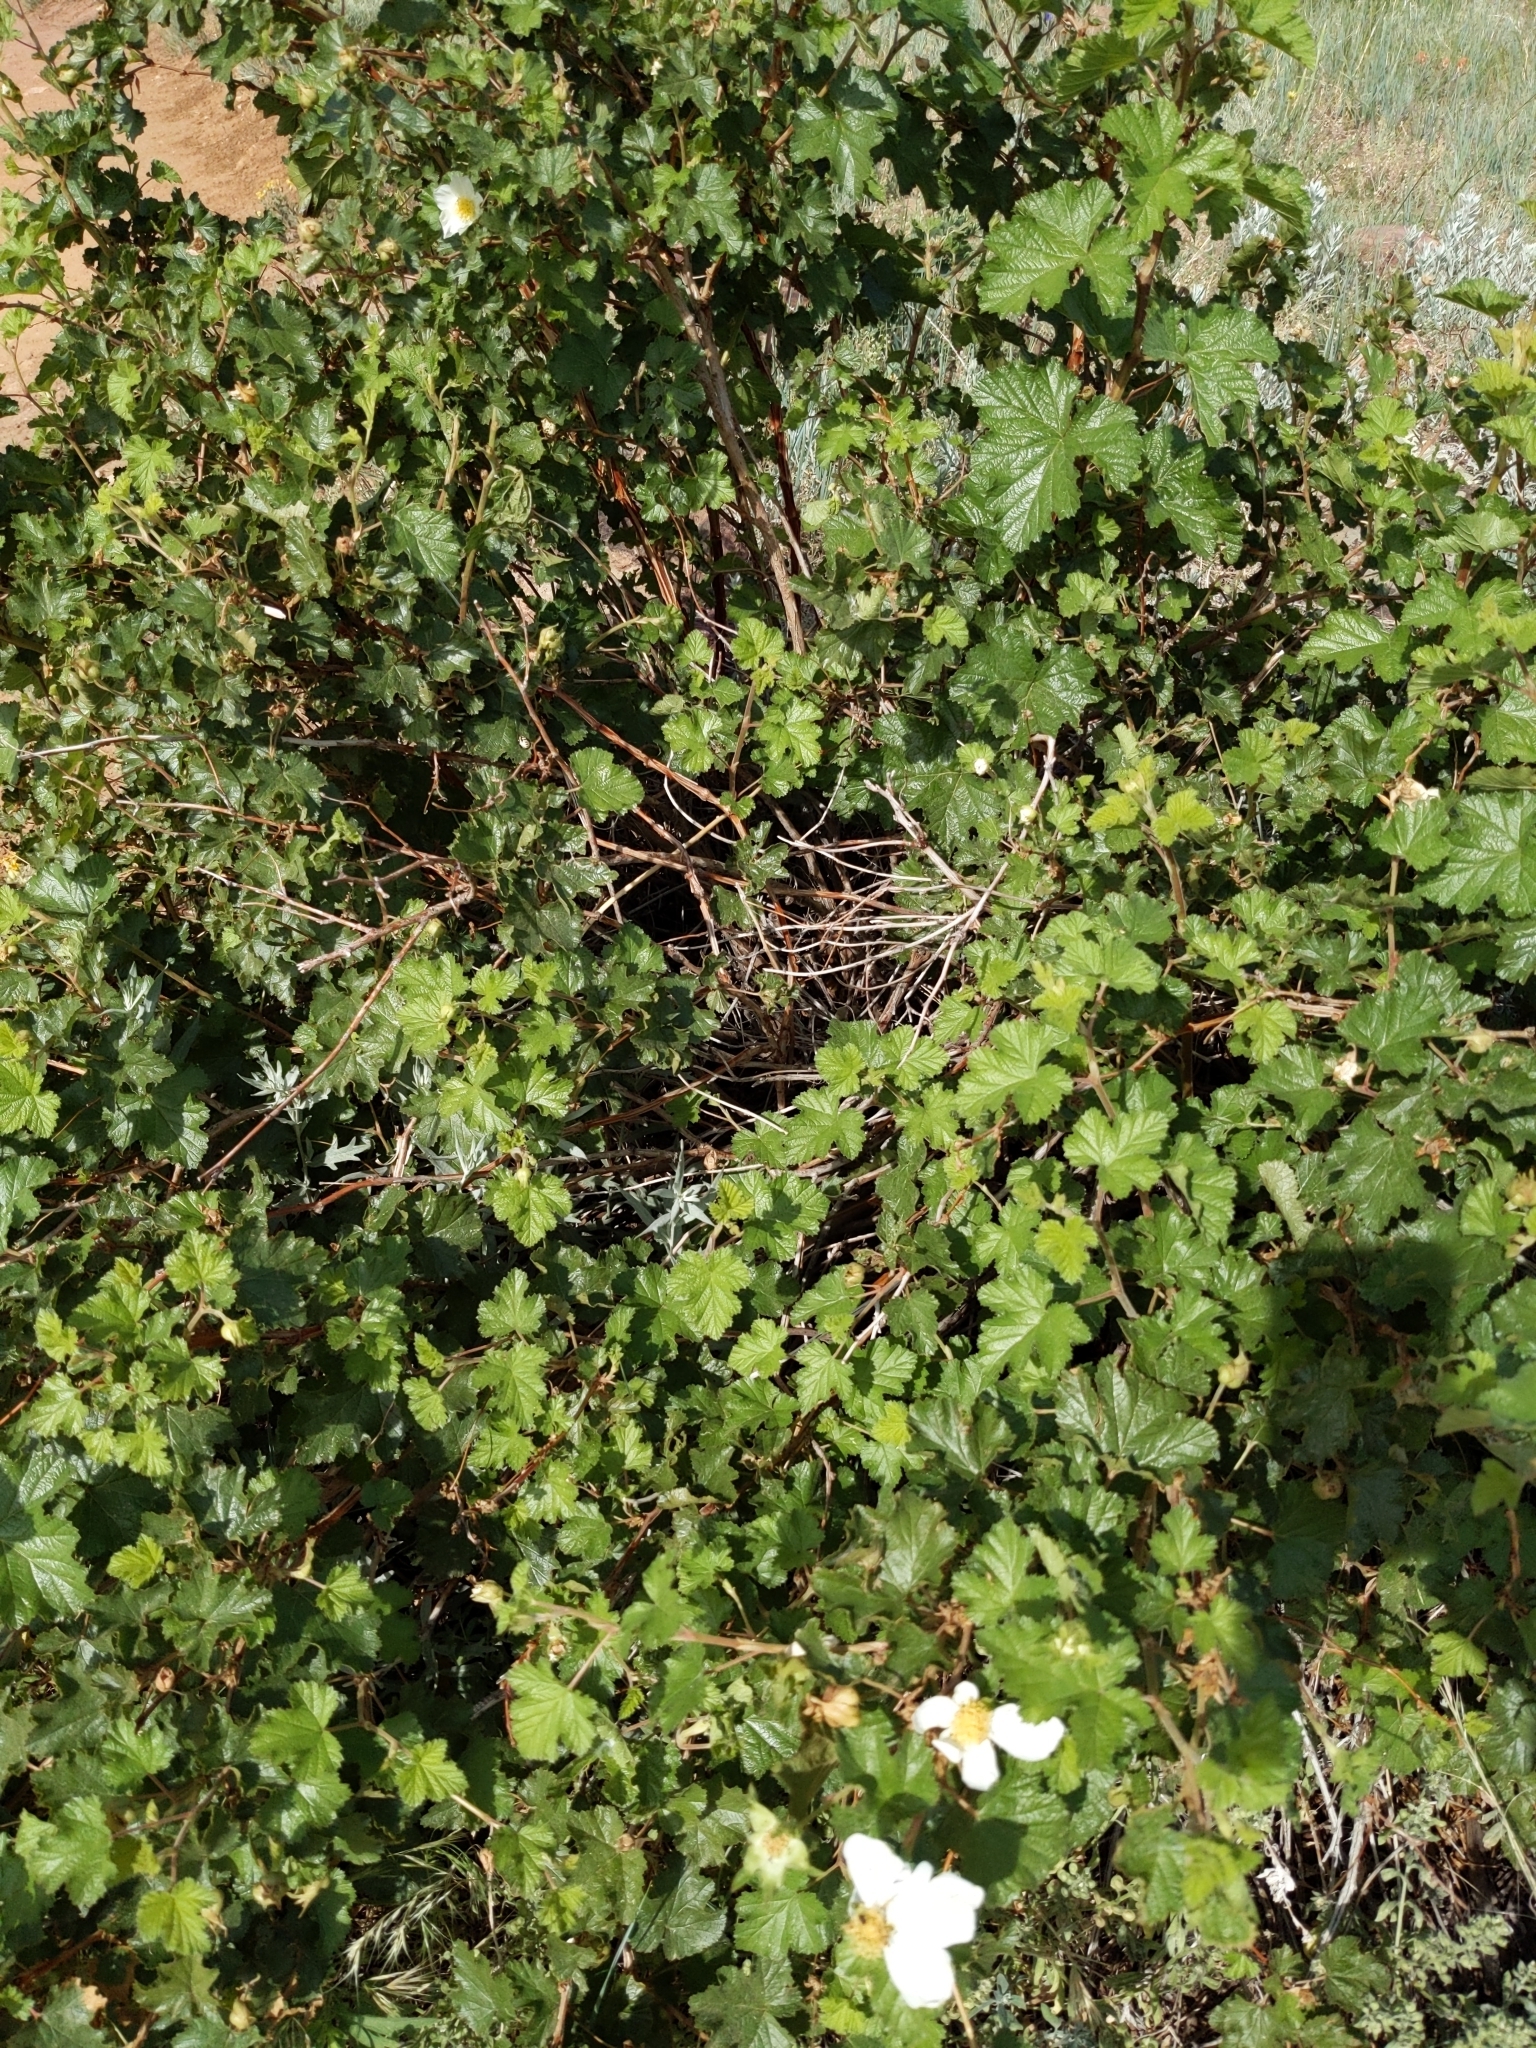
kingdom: Plantae
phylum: Tracheophyta
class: Magnoliopsida
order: Rosales
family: Rosaceae
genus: Rubus
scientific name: Rubus deliciosus
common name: Rocky mountain raspberry
